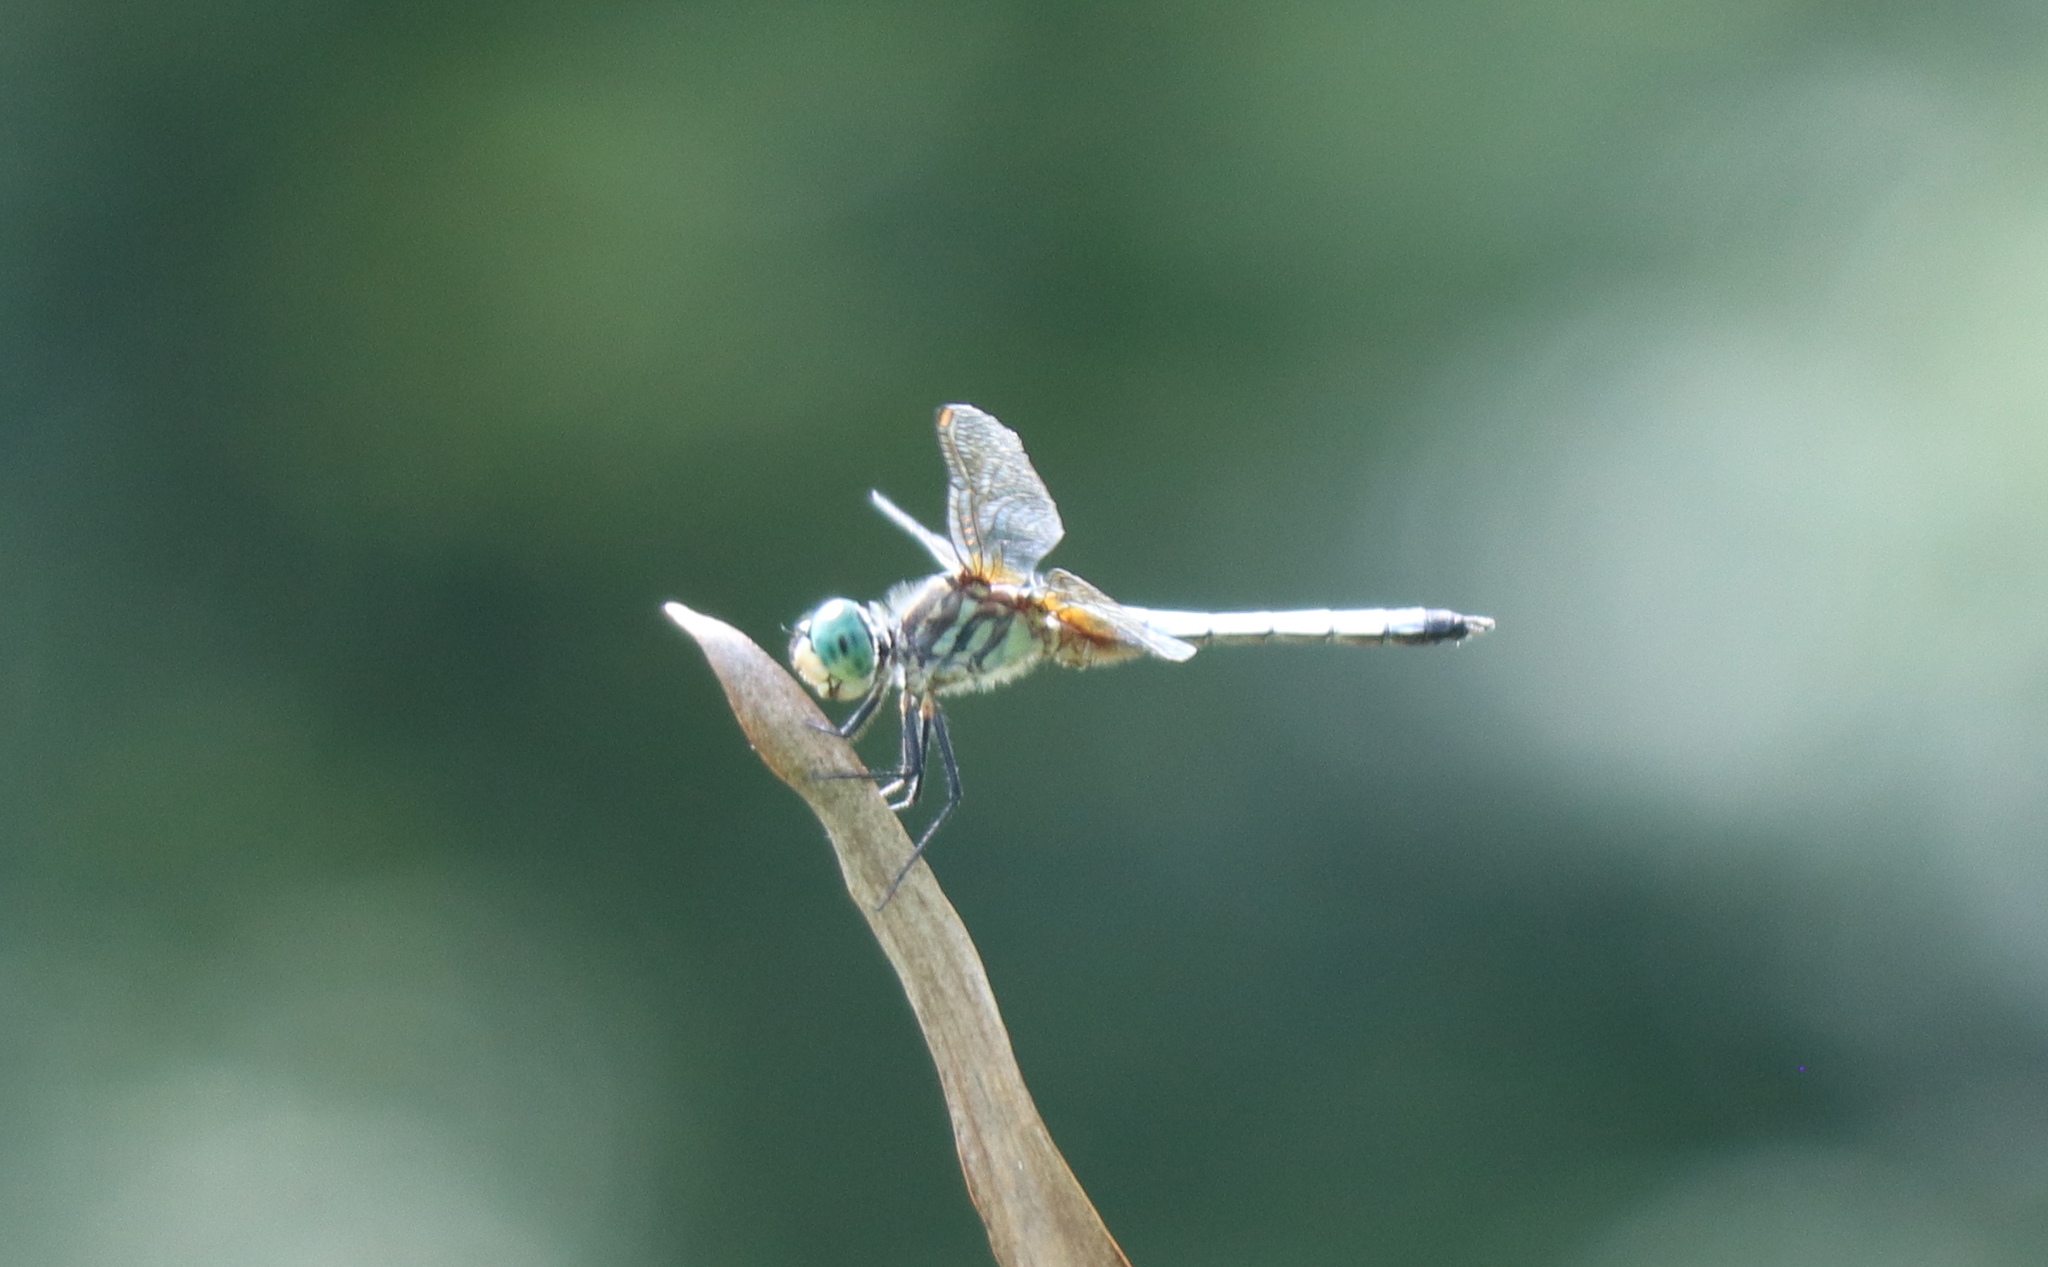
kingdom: Animalia
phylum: Arthropoda
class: Insecta
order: Odonata
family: Libellulidae
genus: Pachydiplax
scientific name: Pachydiplax longipennis
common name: Blue dasher
